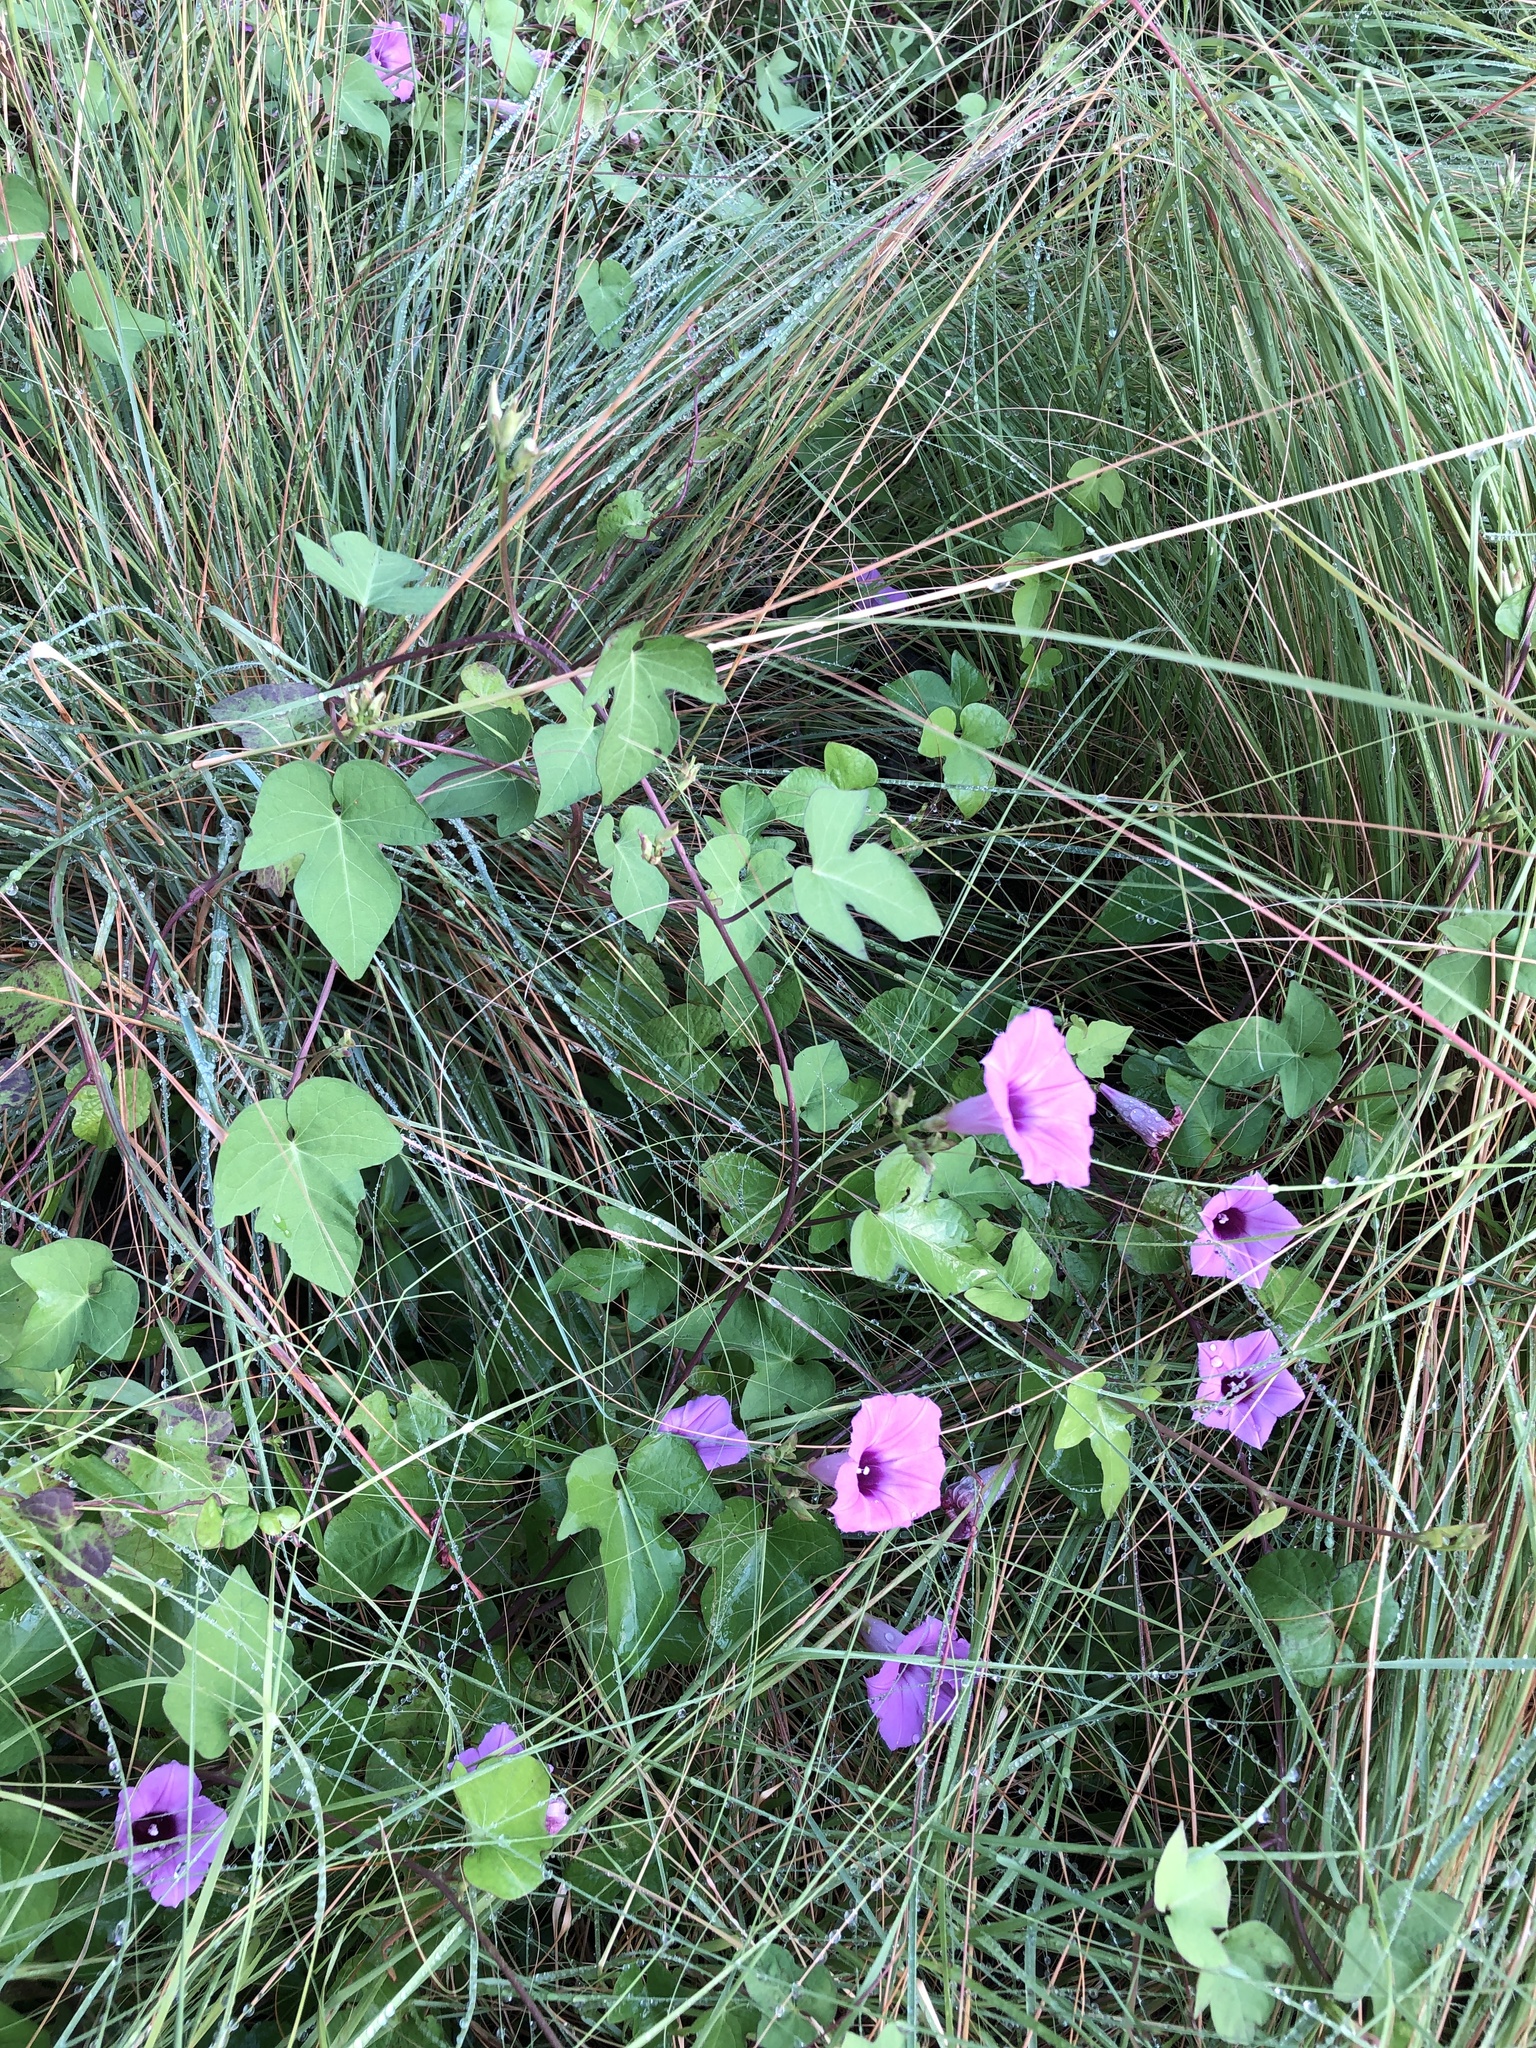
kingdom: Plantae
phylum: Tracheophyta
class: Magnoliopsida
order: Solanales
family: Convolvulaceae
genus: Ipomoea
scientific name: Ipomoea cordatotriloba
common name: Cotton morning glory
